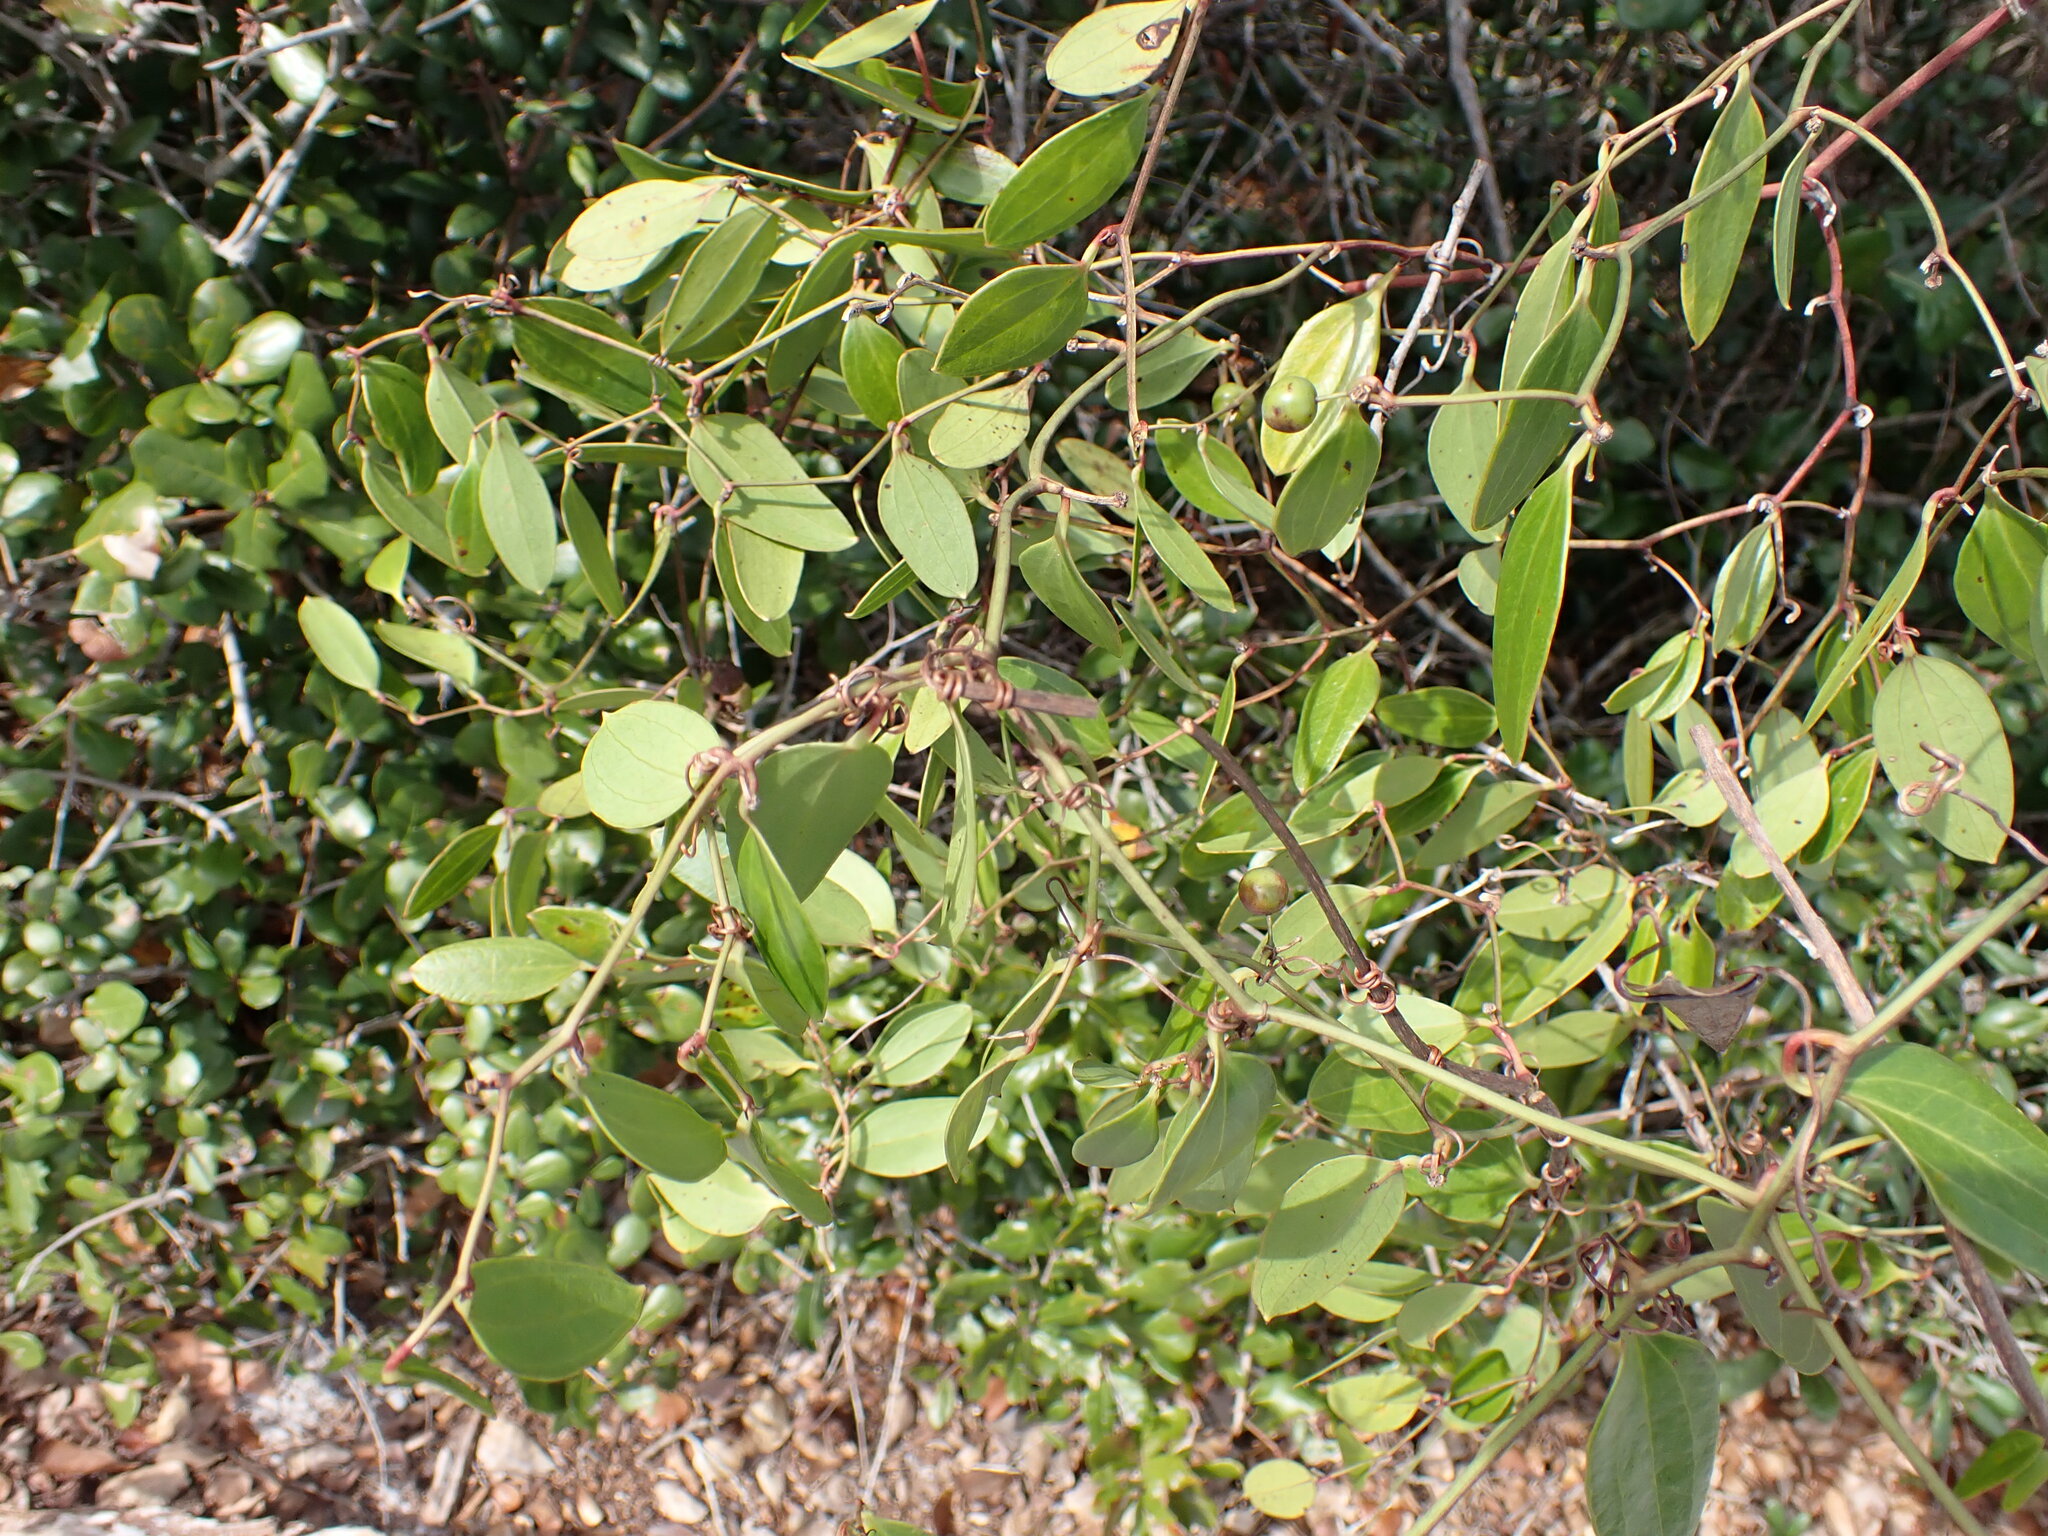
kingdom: Plantae
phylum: Tracheophyta
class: Liliopsida
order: Liliales
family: Smilacaceae
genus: Smilax
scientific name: Smilax auriculata
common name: Wild bamboo
